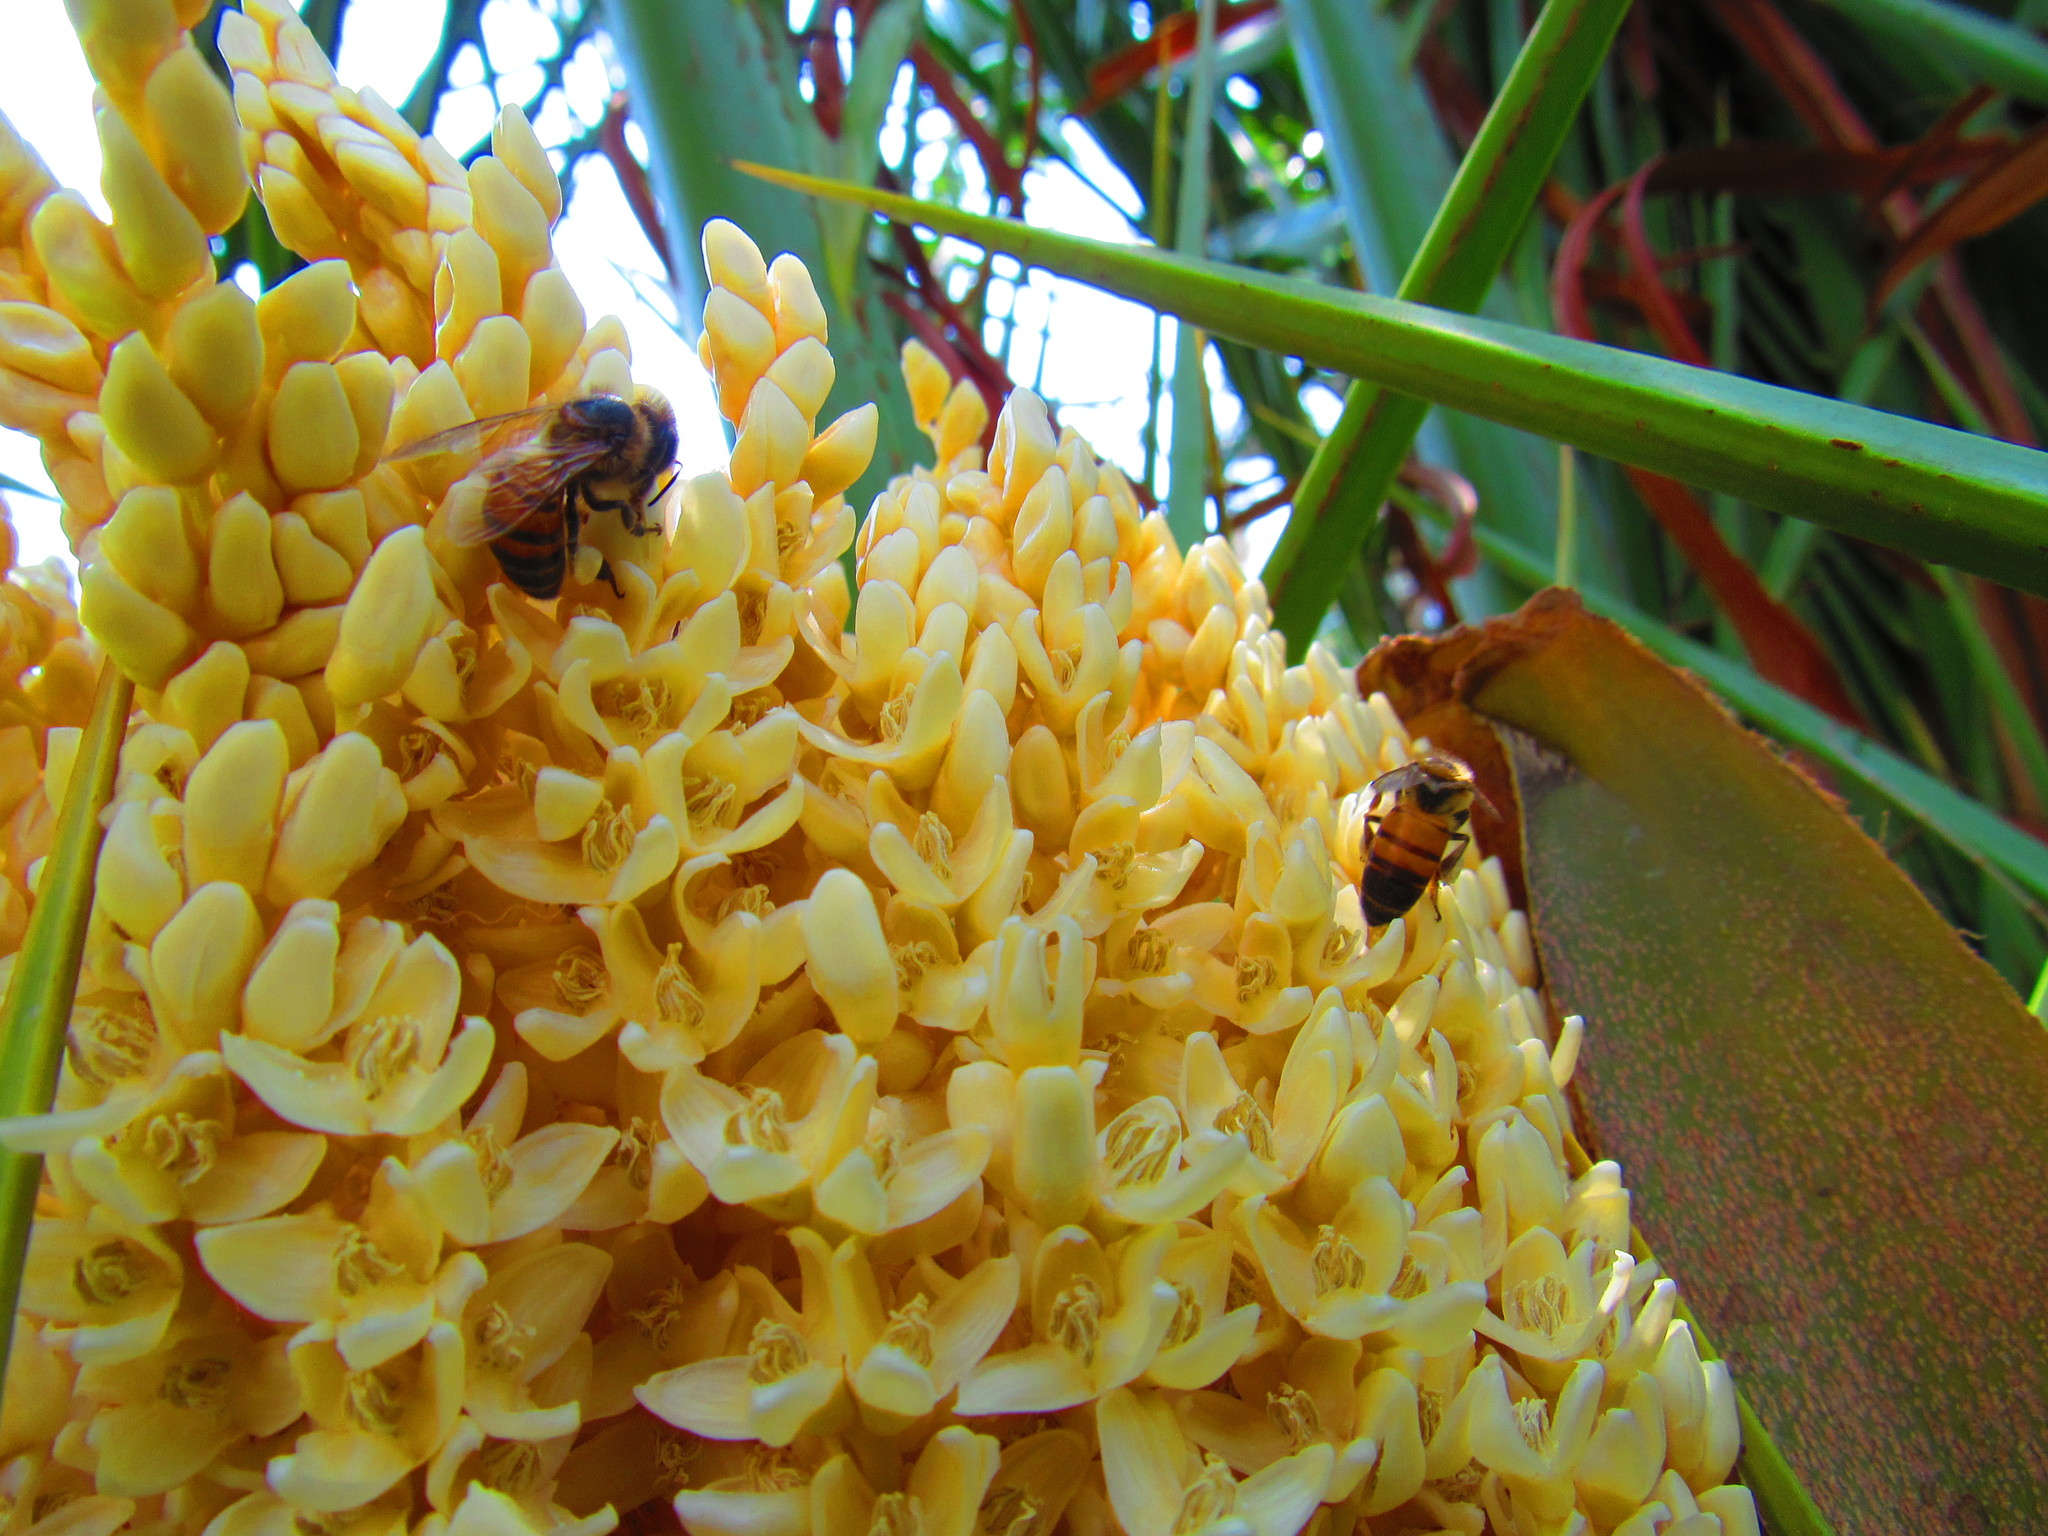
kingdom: Animalia
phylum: Arthropoda
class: Insecta
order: Hymenoptera
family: Apidae
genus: Apis
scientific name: Apis mellifera
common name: Honey bee
